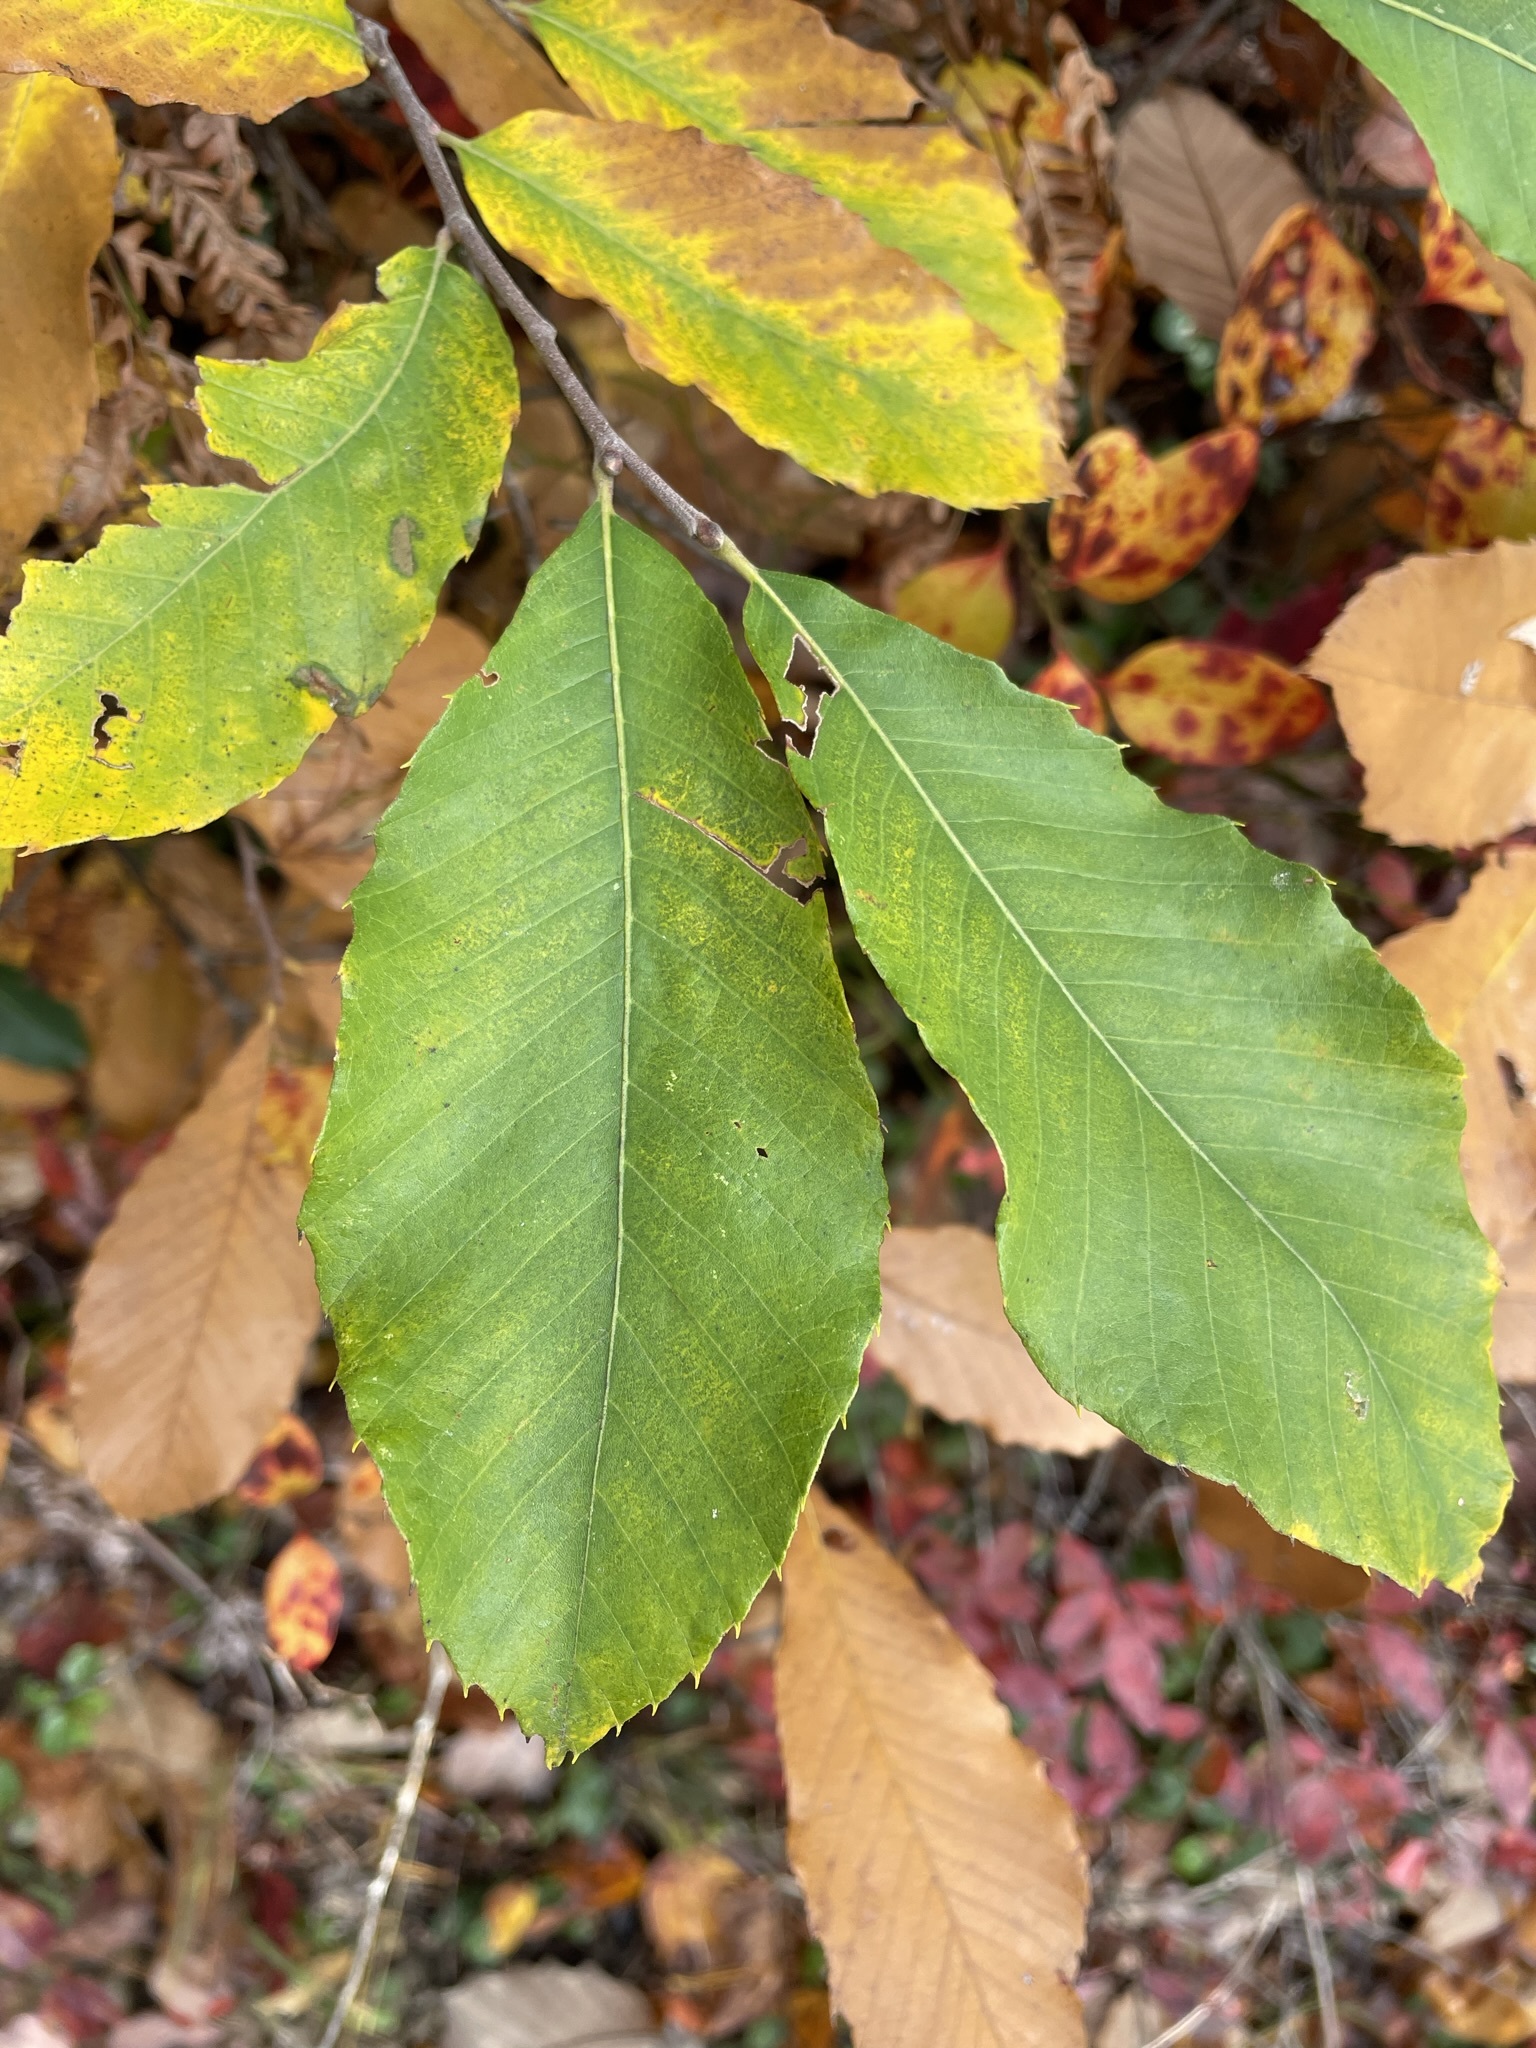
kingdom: Plantae
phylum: Tracheophyta
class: Magnoliopsida
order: Fagales
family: Fagaceae
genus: Castanea
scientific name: Castanea pumila
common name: Chinkapin
